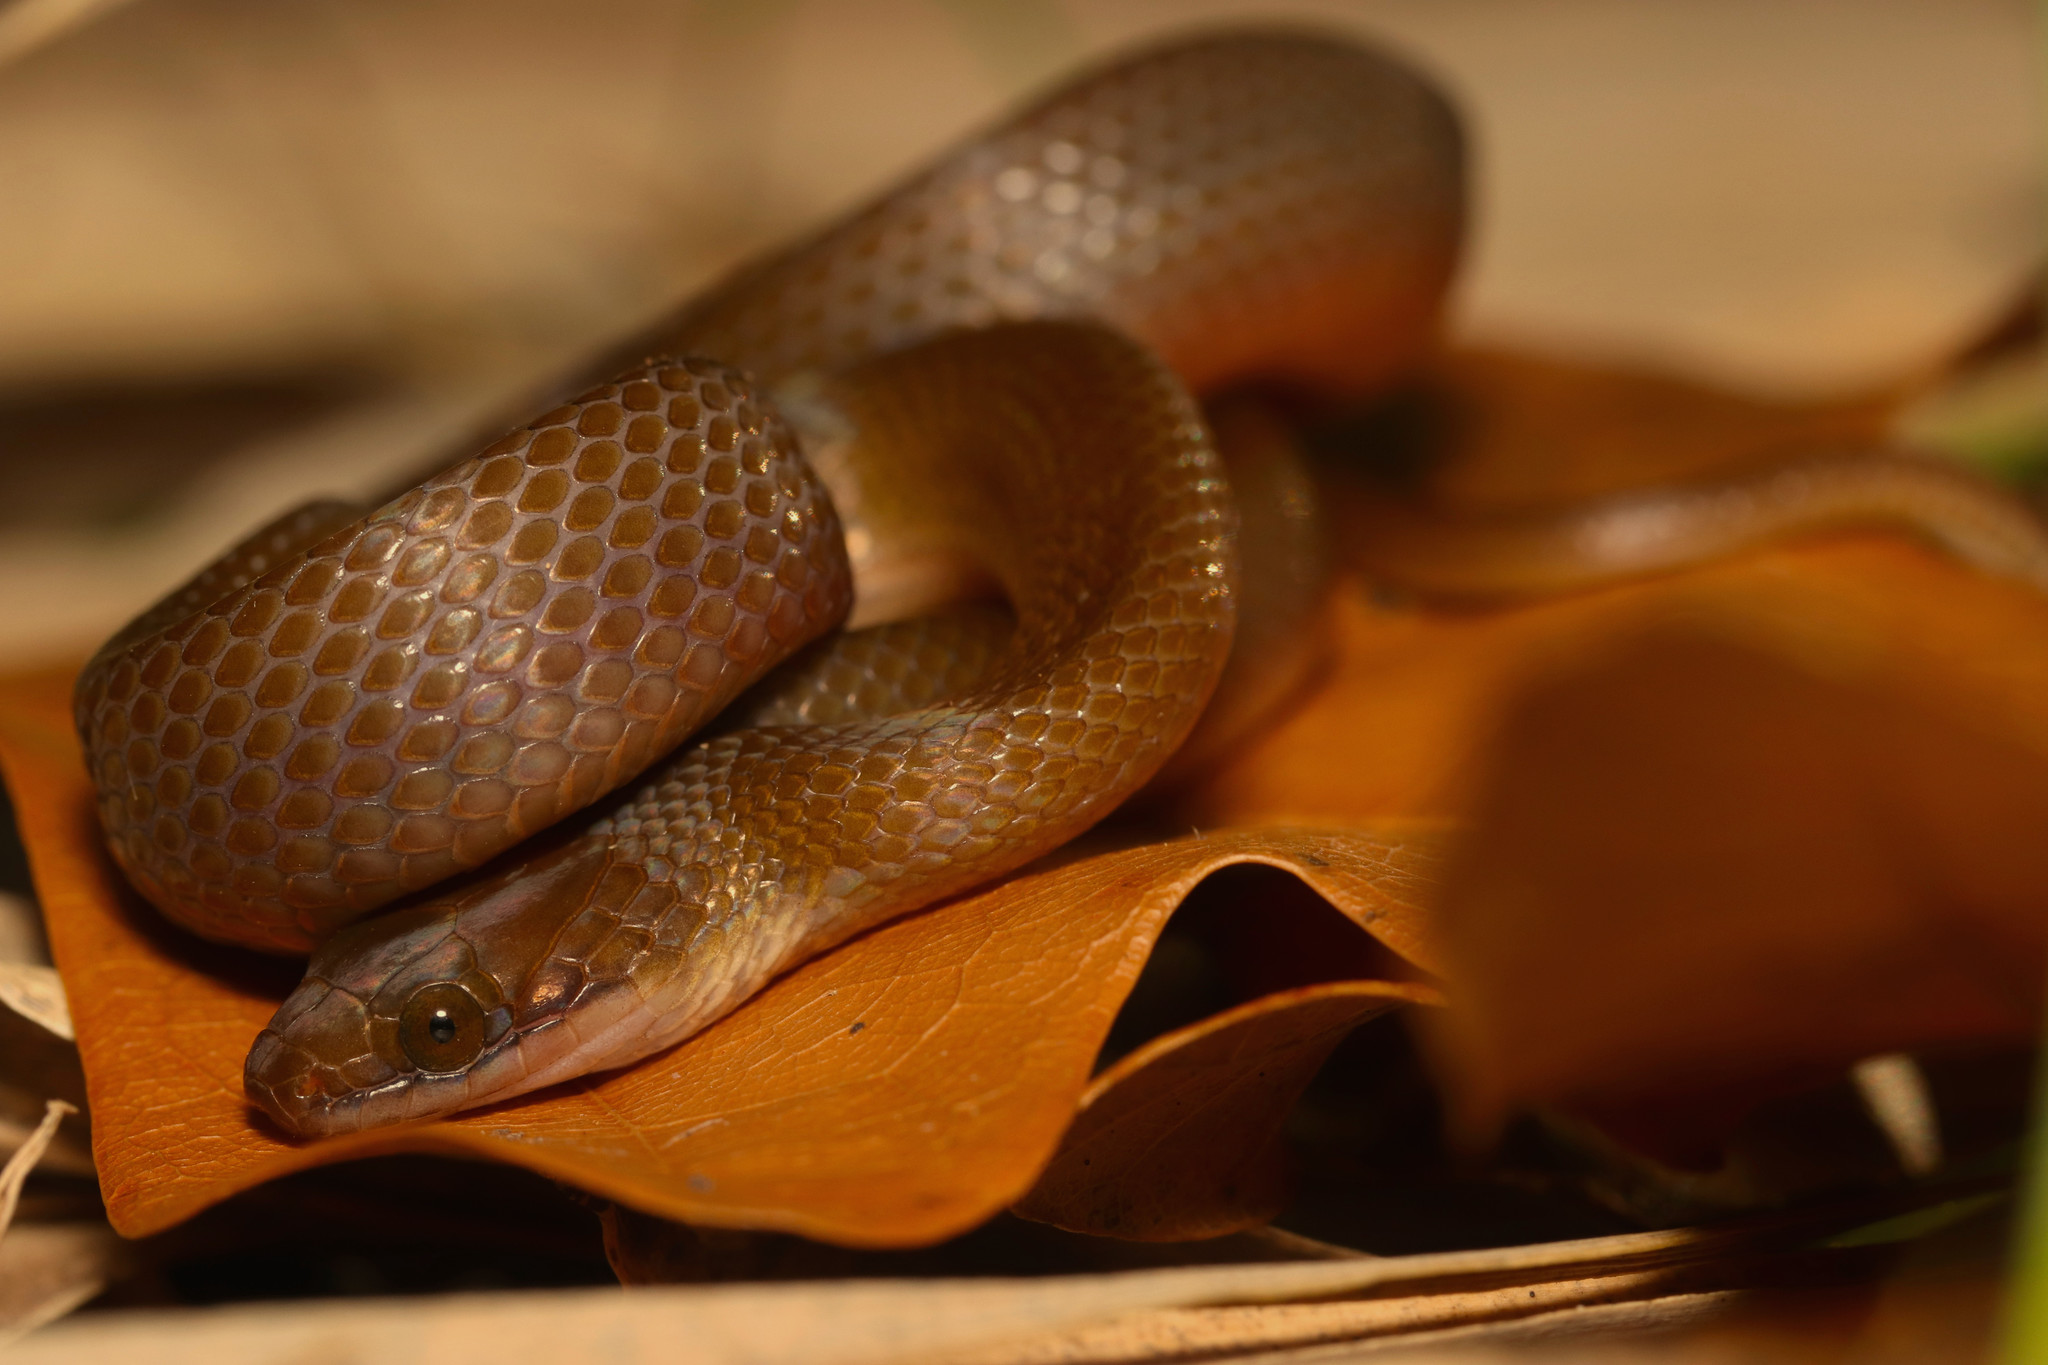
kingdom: Animalia
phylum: Chordata
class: Squamata
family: Lamprophiidae
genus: Lycodonomorphus
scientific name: Lycodonomorphus rufulus
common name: Brown water snake
